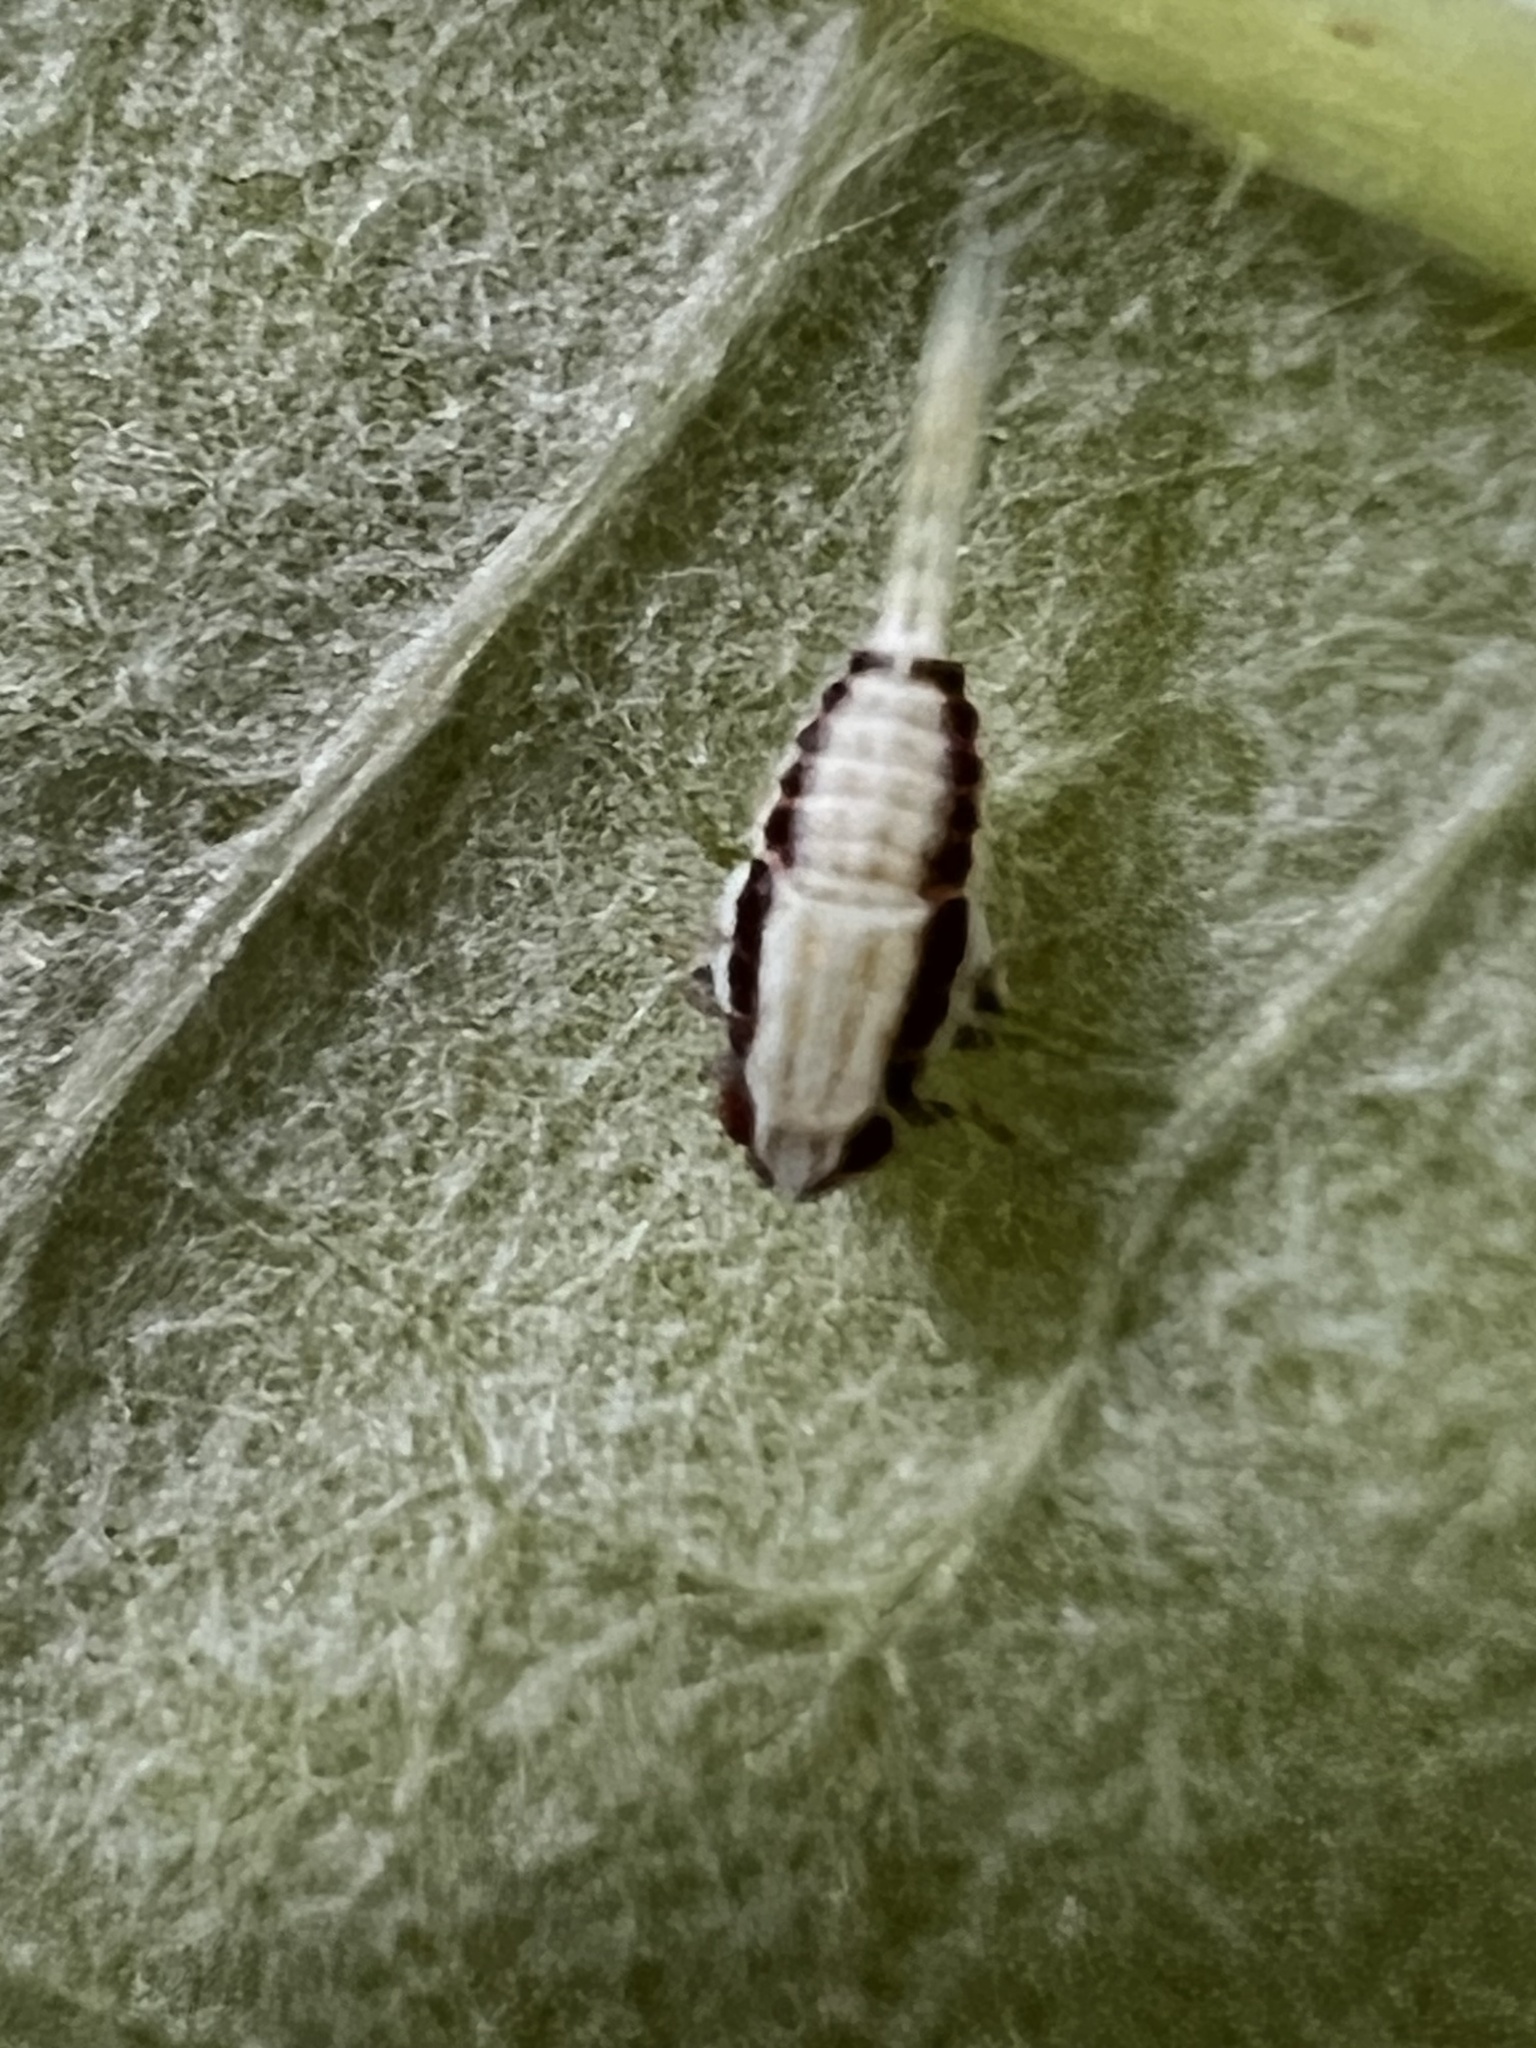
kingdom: Animalia
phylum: Arthropoda
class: Insecta
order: Hemiptera
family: Issidae
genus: Thionia
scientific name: Thionia bullata
